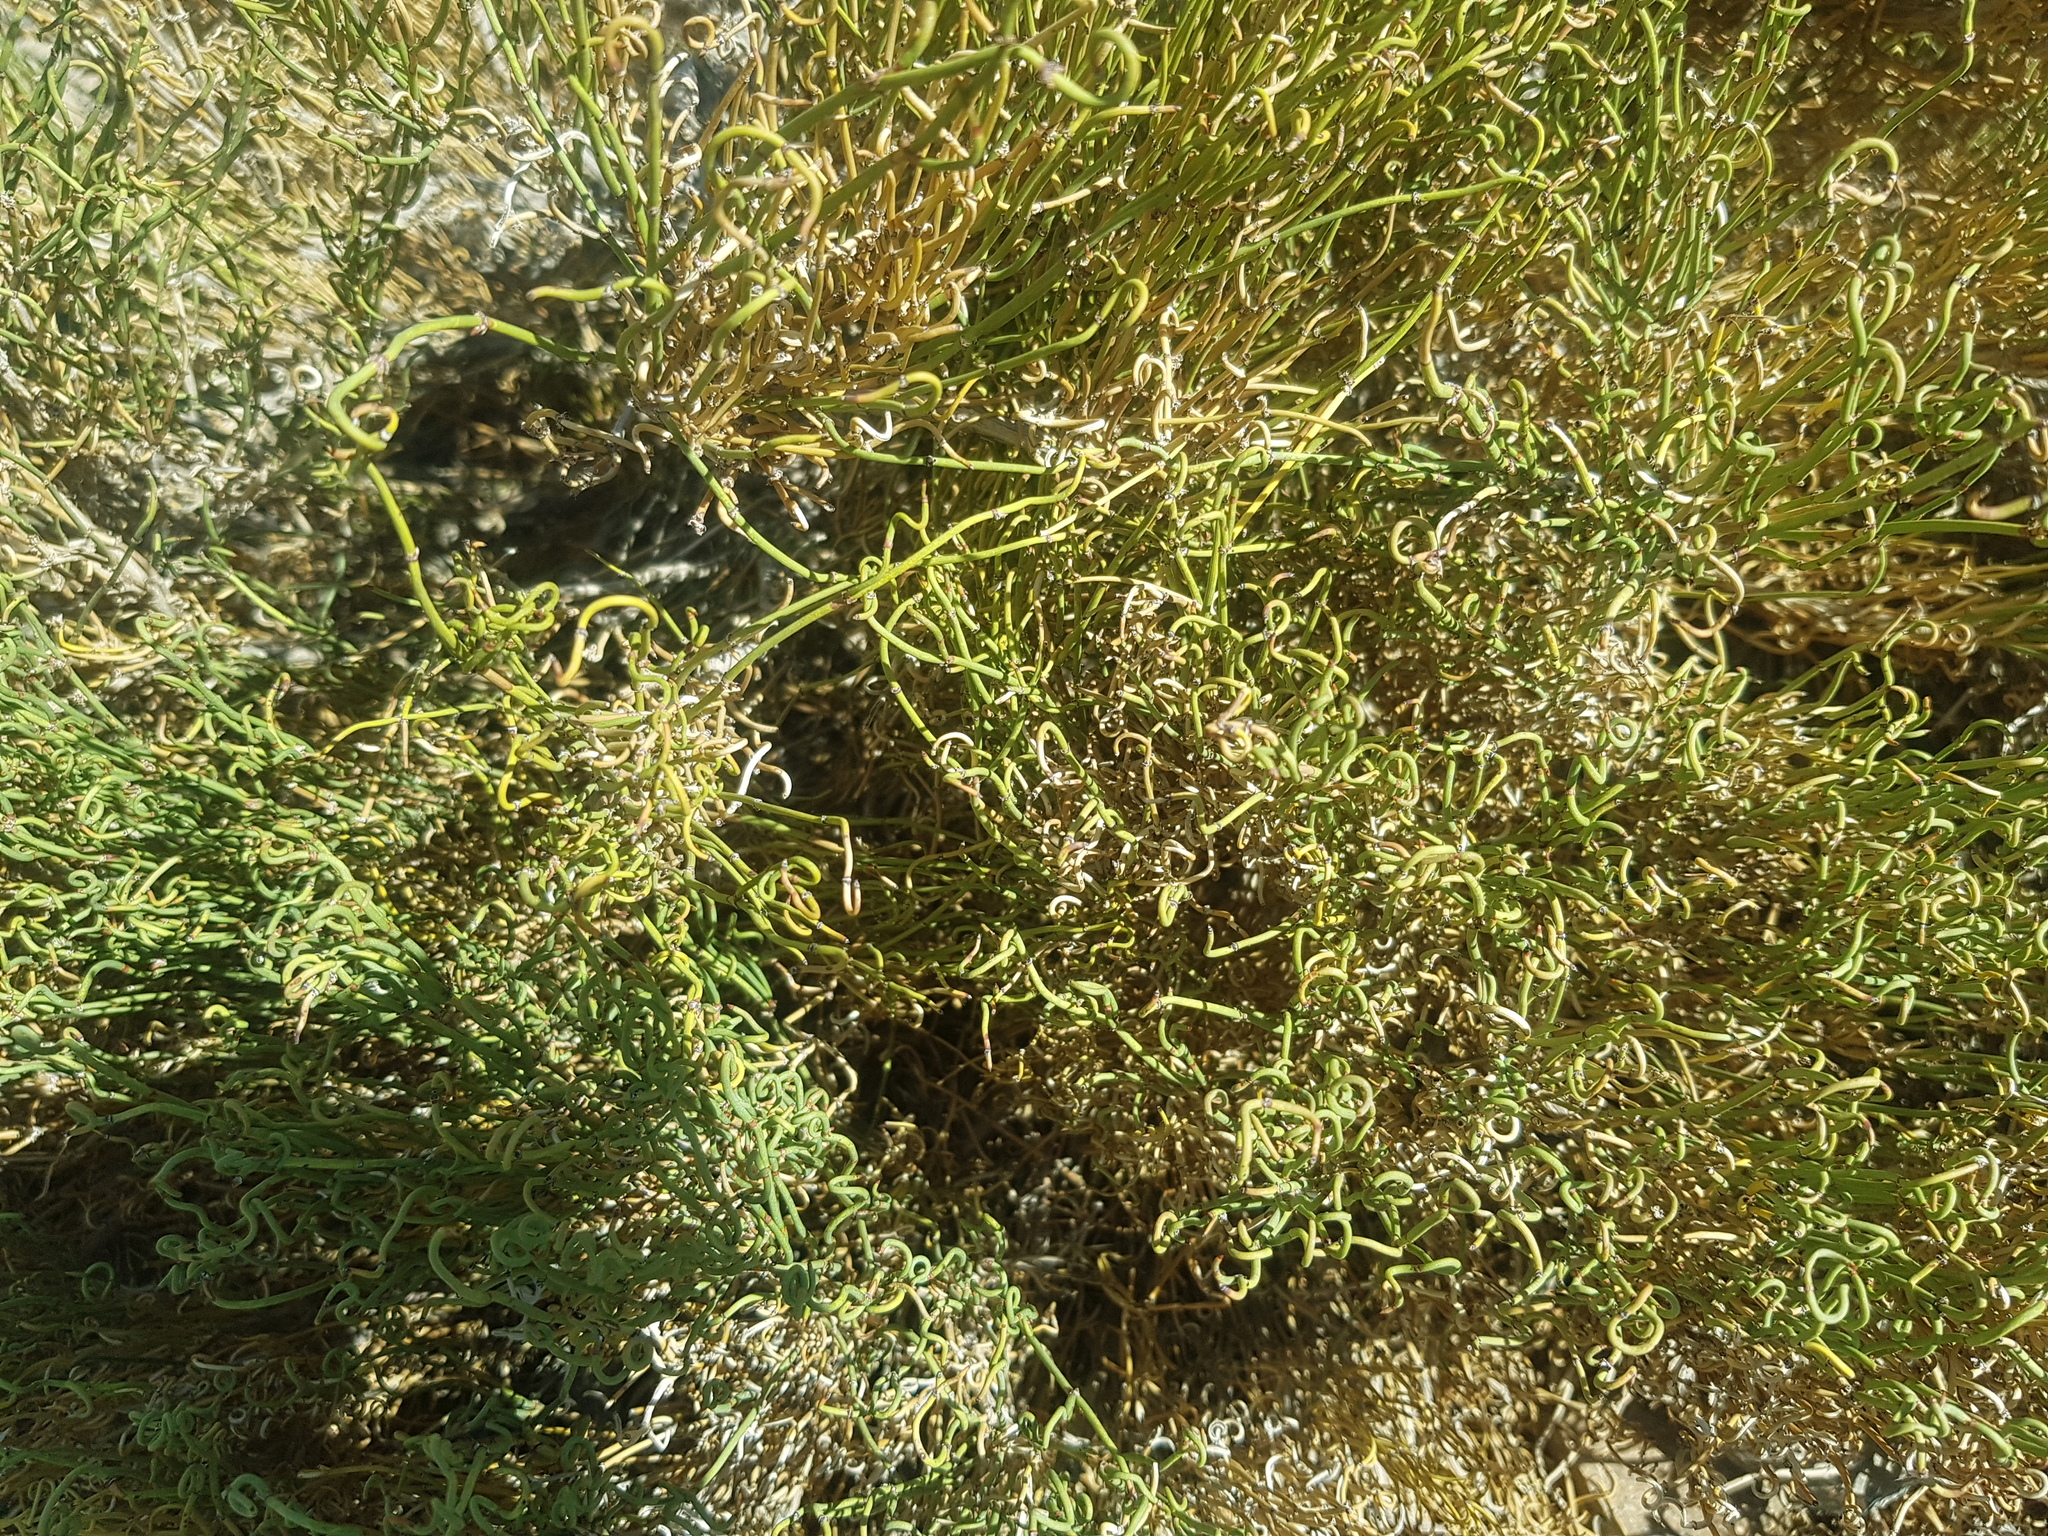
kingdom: Plantae
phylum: Tracheophyta
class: Gnetopsida
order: Ephedrales
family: Ephedraceae
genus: Ephedra
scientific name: Ephedra przewalskii
